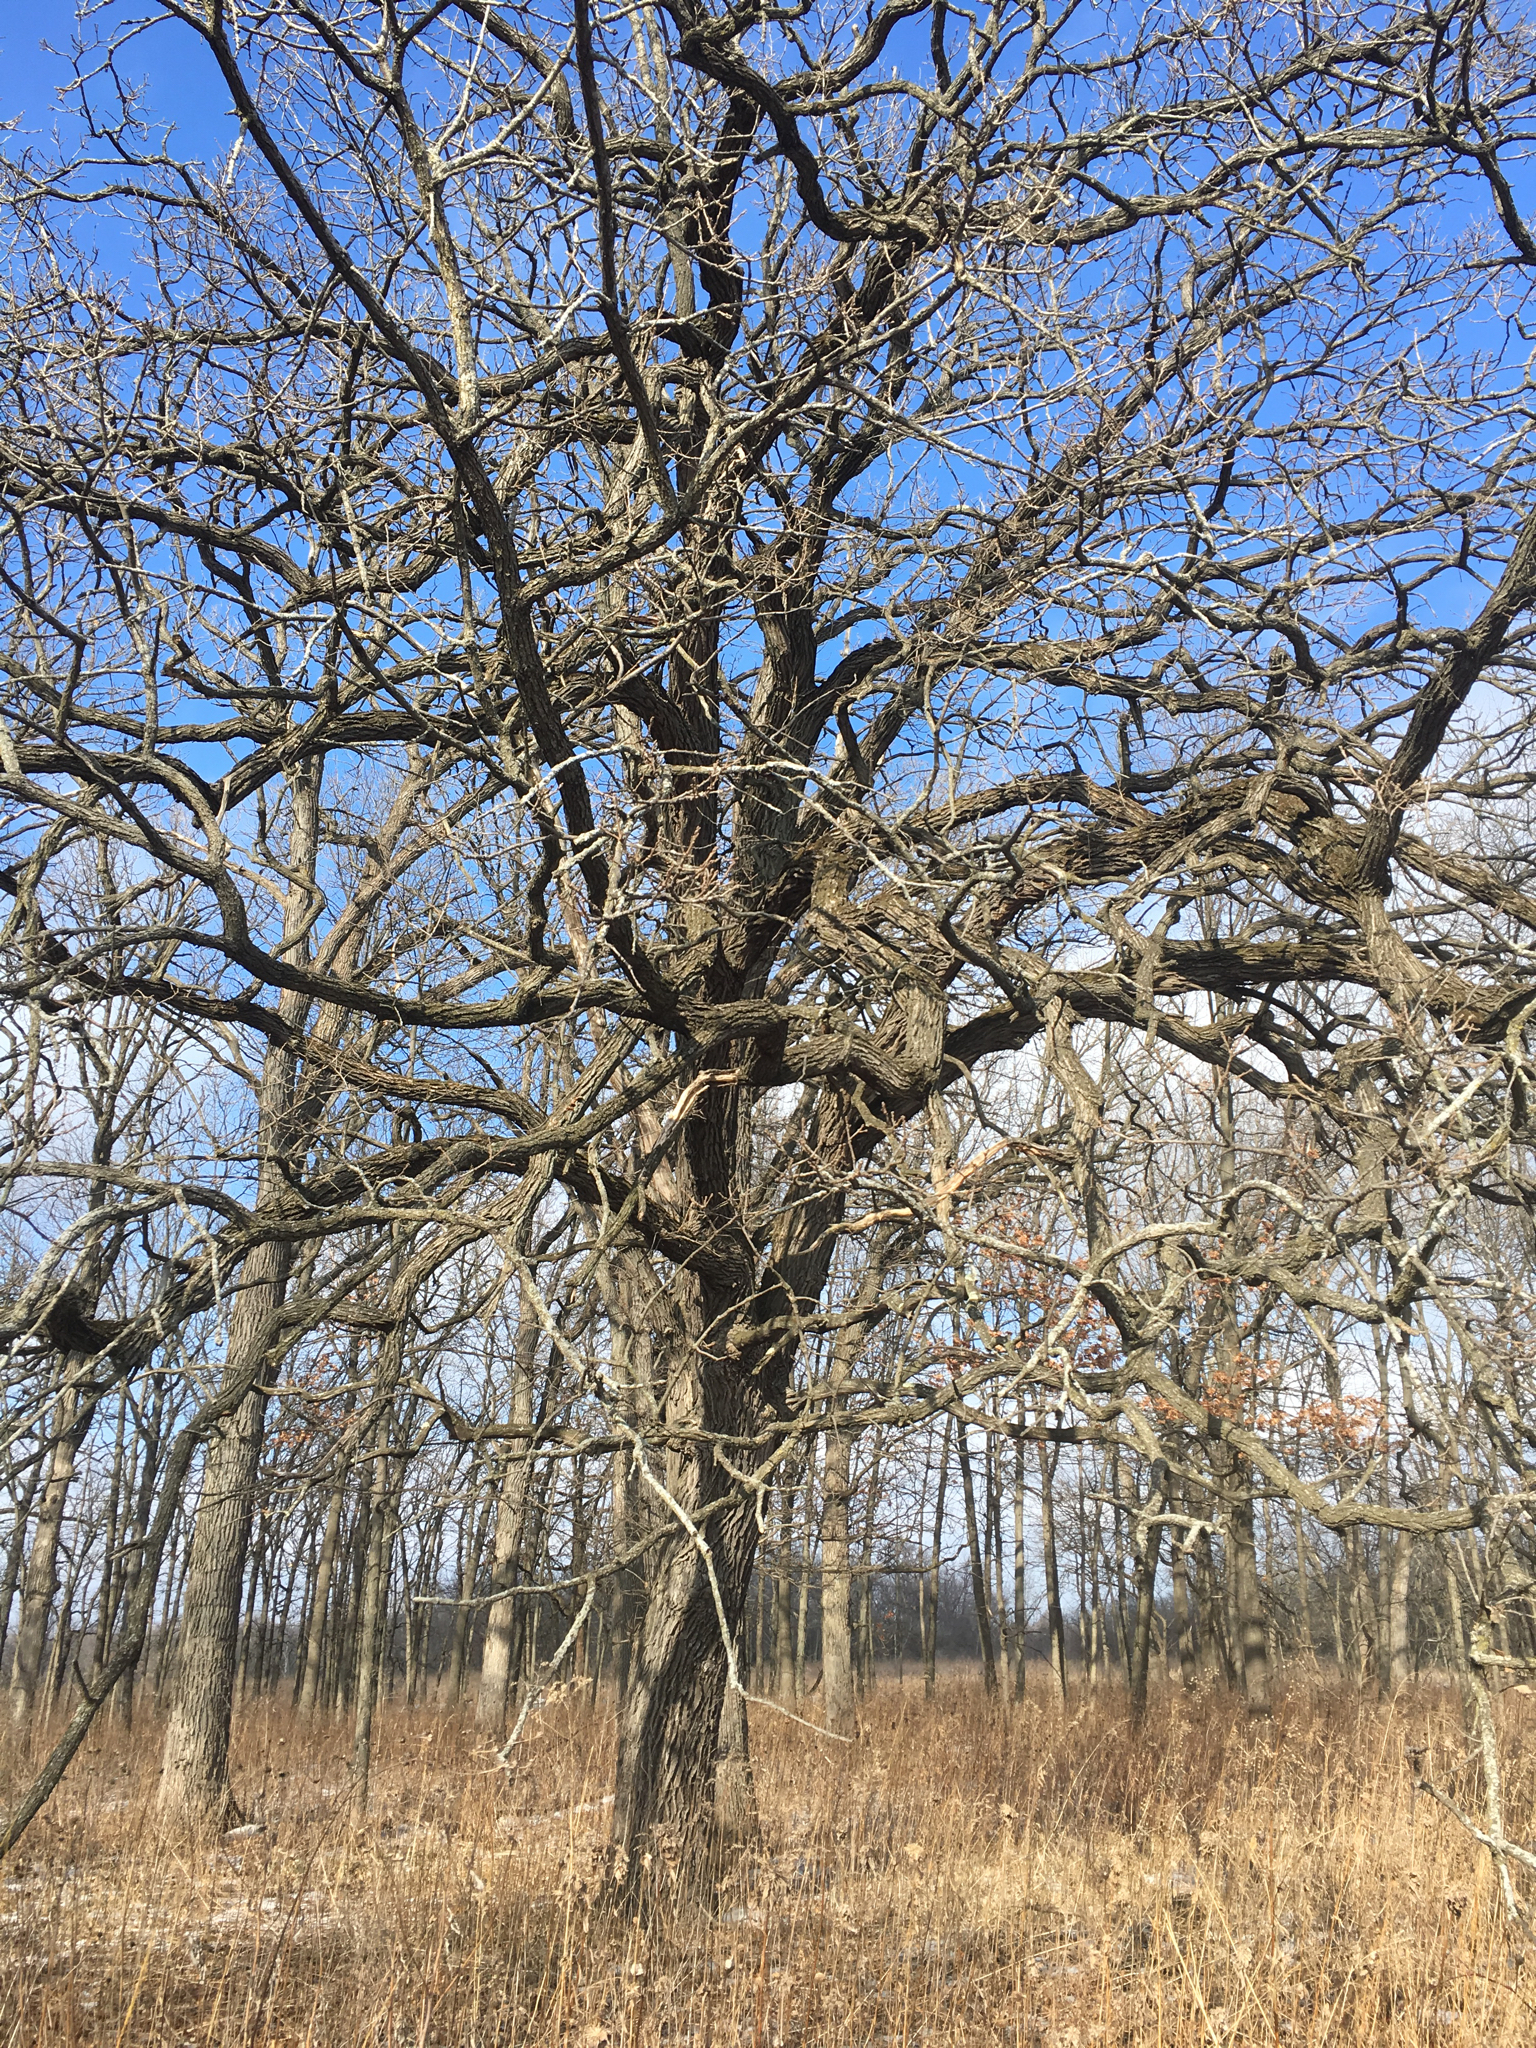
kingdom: Plantae
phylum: Tracheophyta
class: Magnoliopsida
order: Fagales
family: Fagaceae
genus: Quercus
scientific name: Quercus macrocarpa
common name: Bur oak
